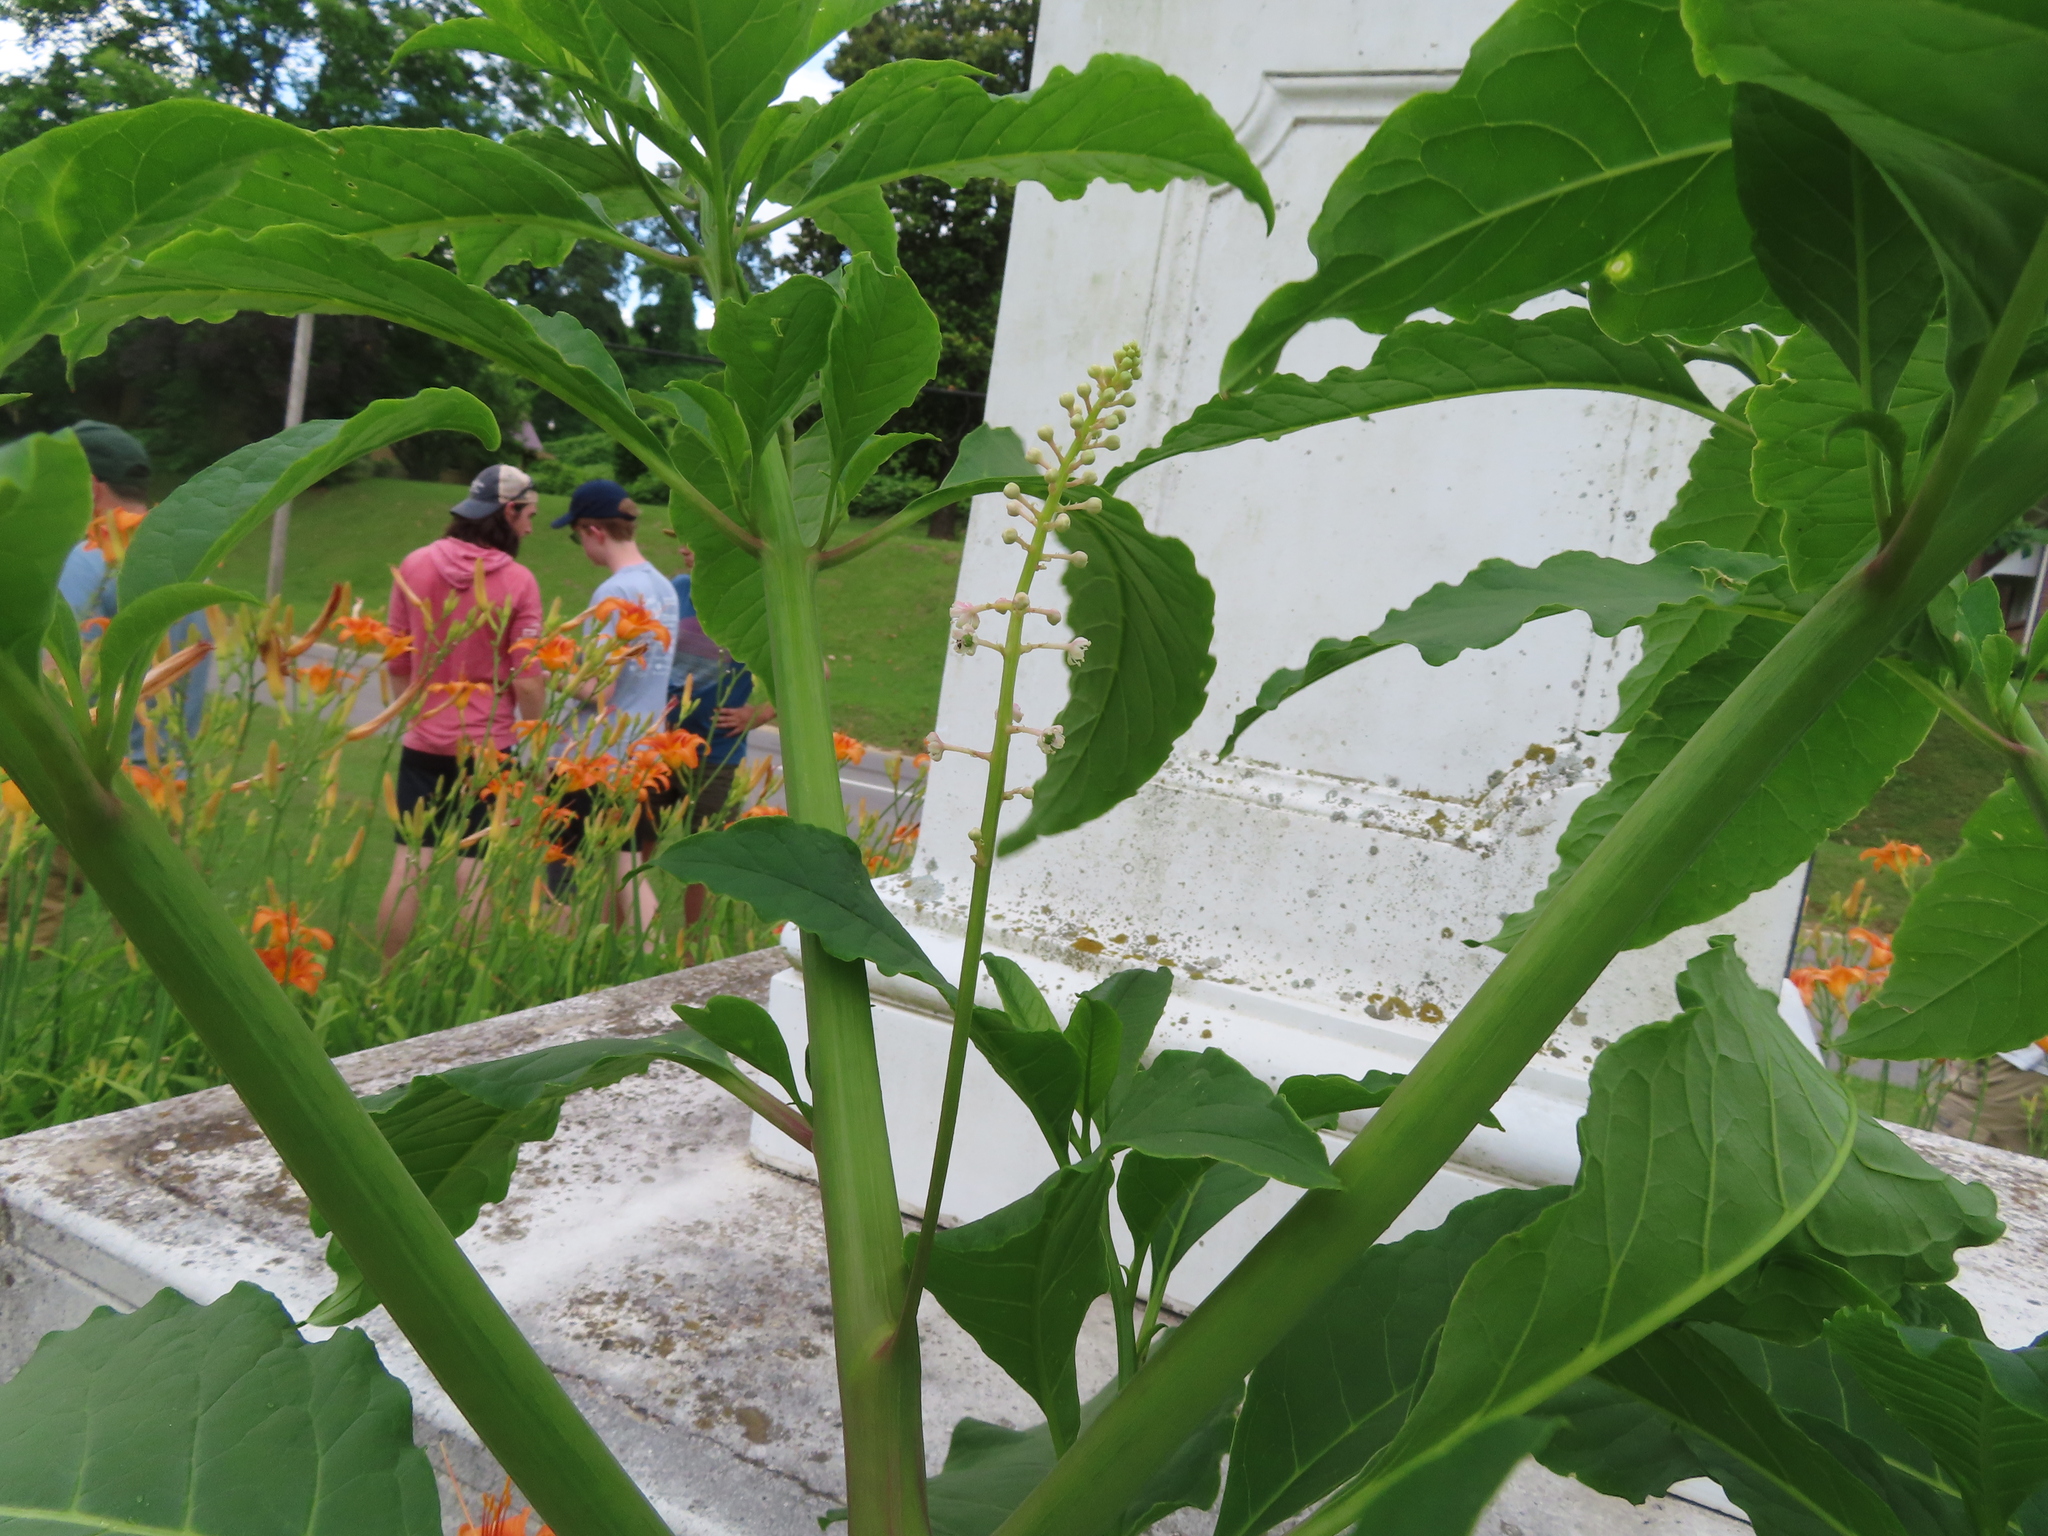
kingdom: Plantae
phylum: Tracheophyta
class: Magnoliopsida
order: Caryophyllales
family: Phytolaccaceae
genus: Phytolacca
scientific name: Phytolacca americana
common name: American pokeweed
